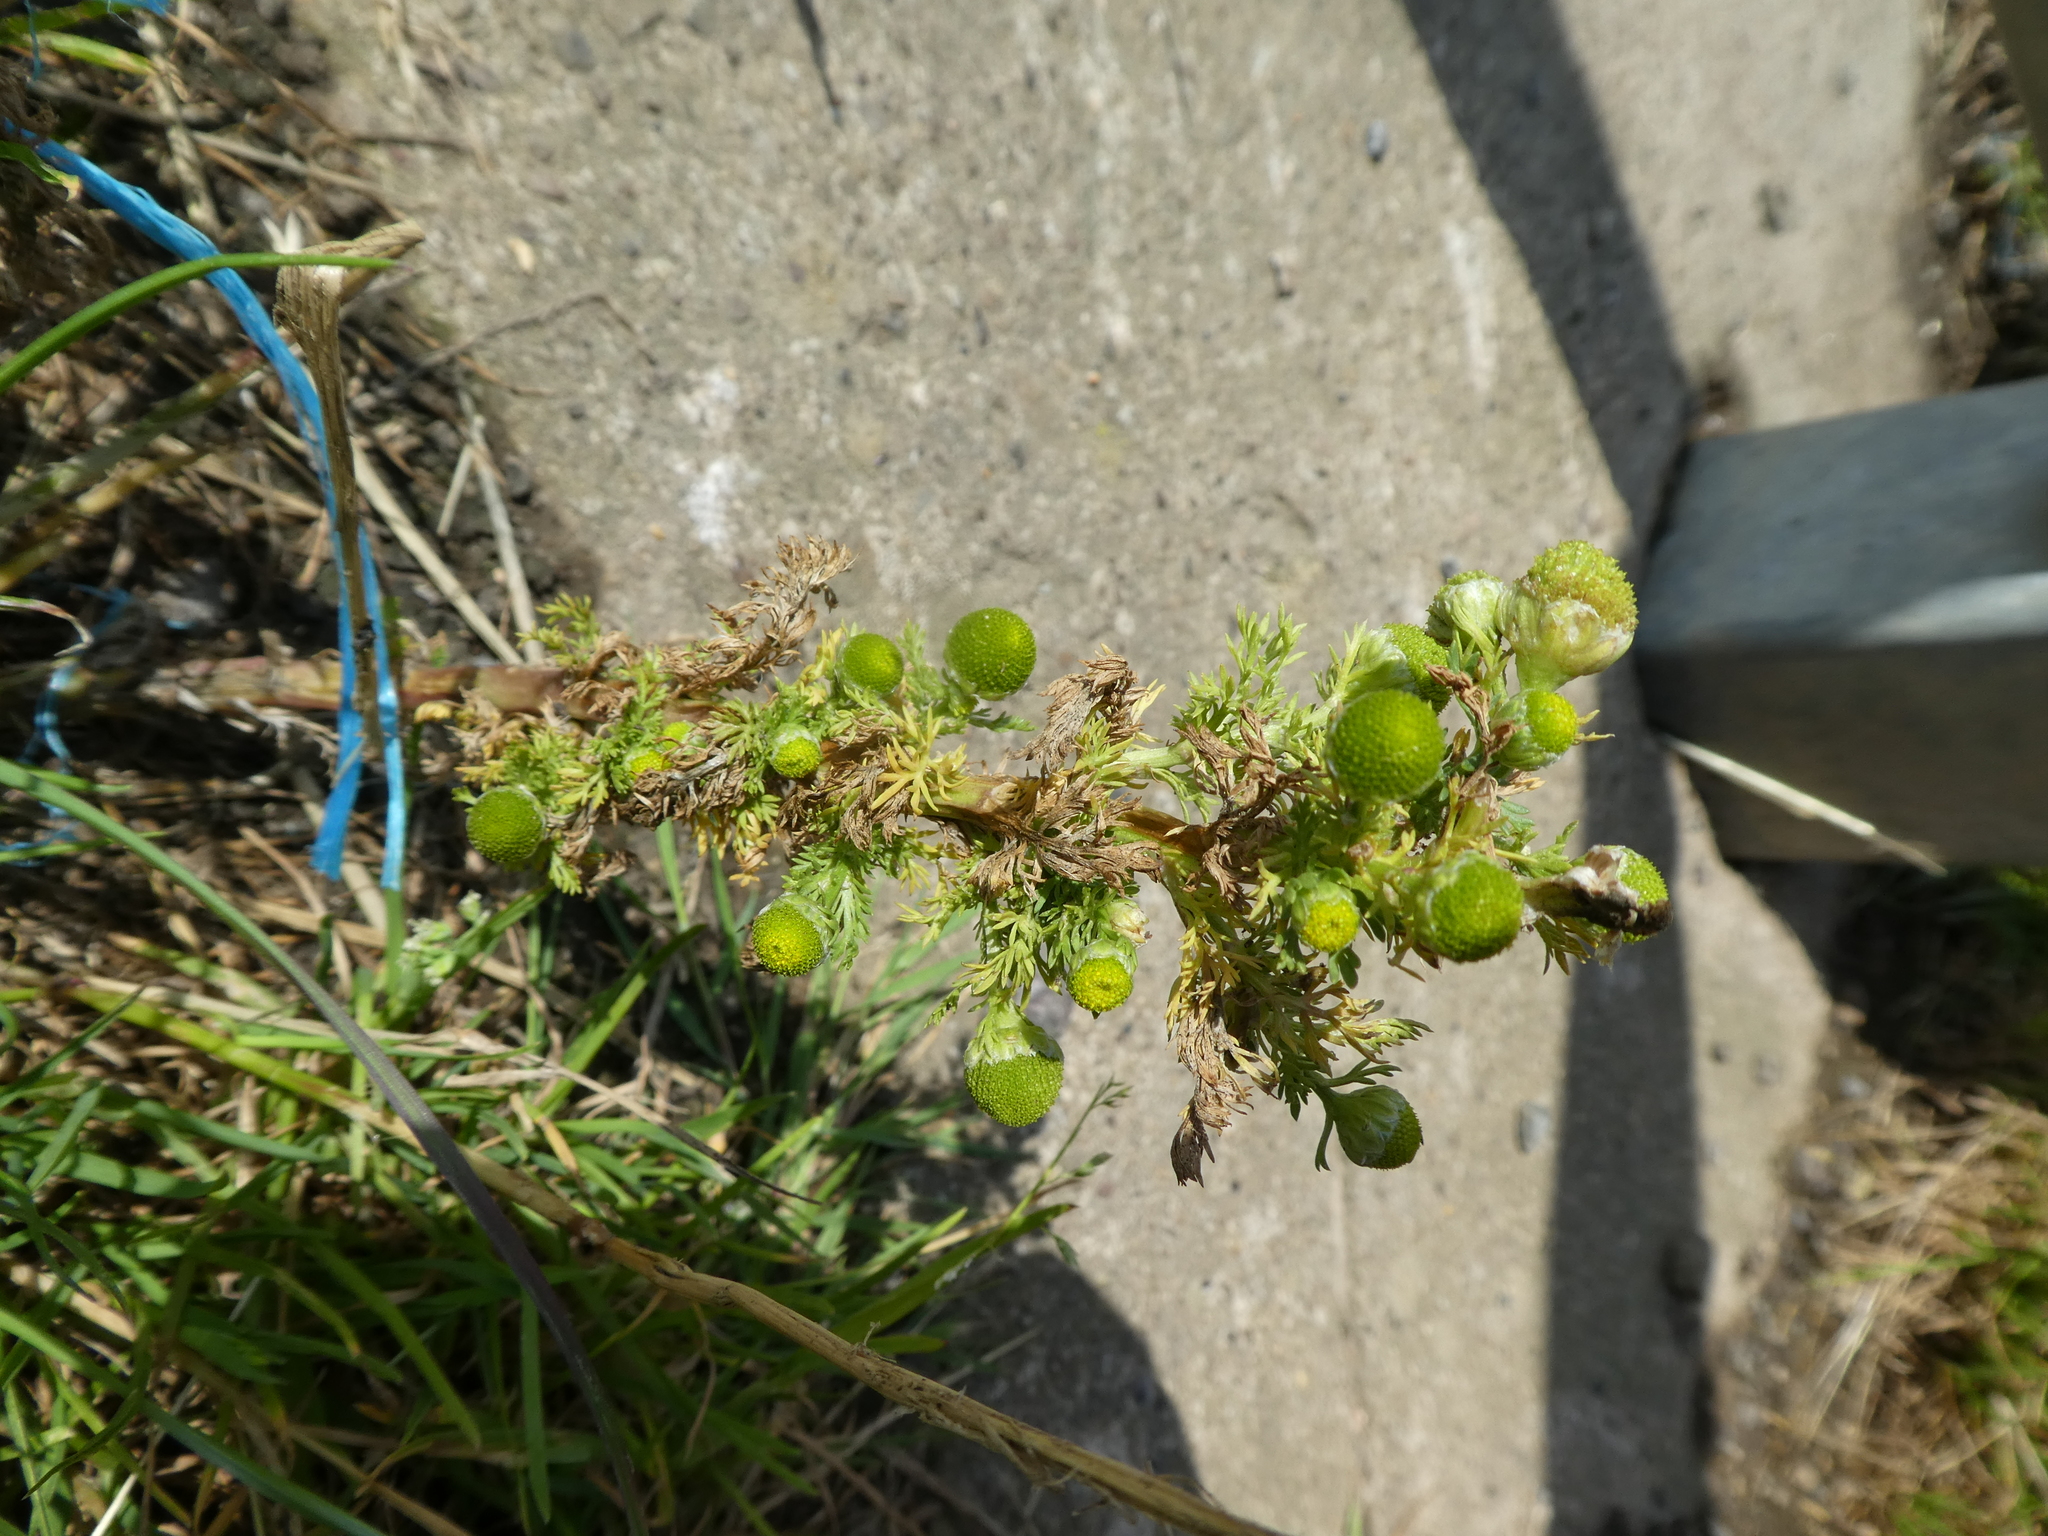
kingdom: Plantae
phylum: Tracheophyta
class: Magnoliopsida
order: Asterales
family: Asteraceae
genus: Matricaria
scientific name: Matricaria discoidea
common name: Disc mayweed
